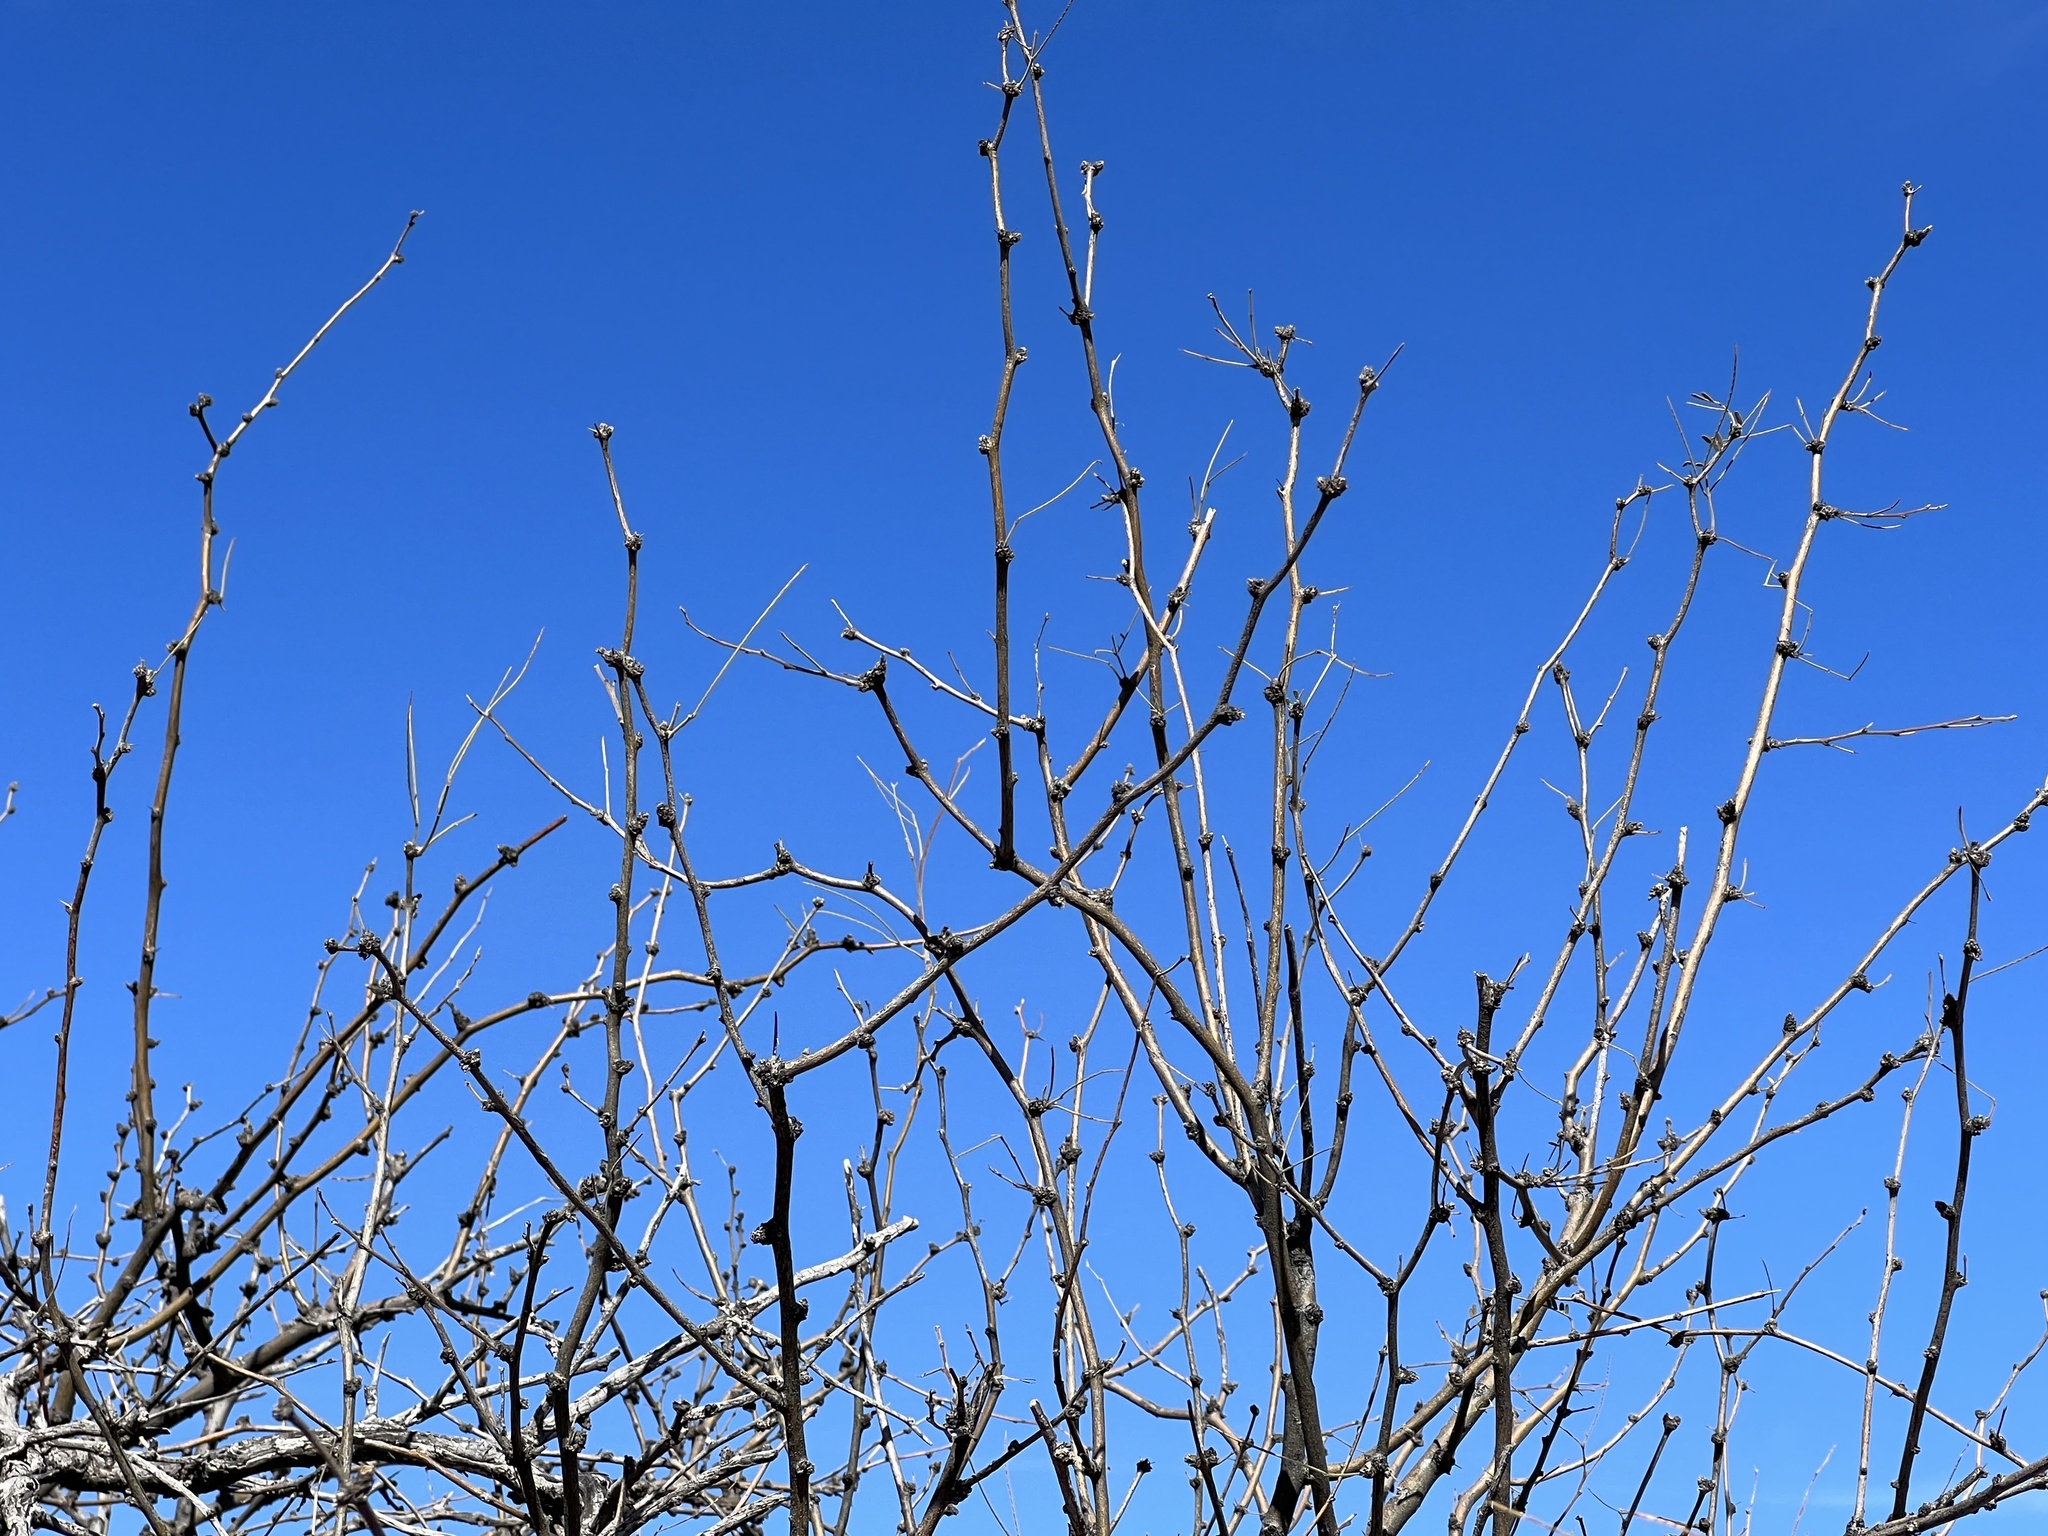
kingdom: Plantae
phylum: Tracheophyta
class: Magnoliopsida
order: Fabales
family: Fabaceae
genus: Prosopis
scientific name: Prosopis velutina
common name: Velvet mesquite
